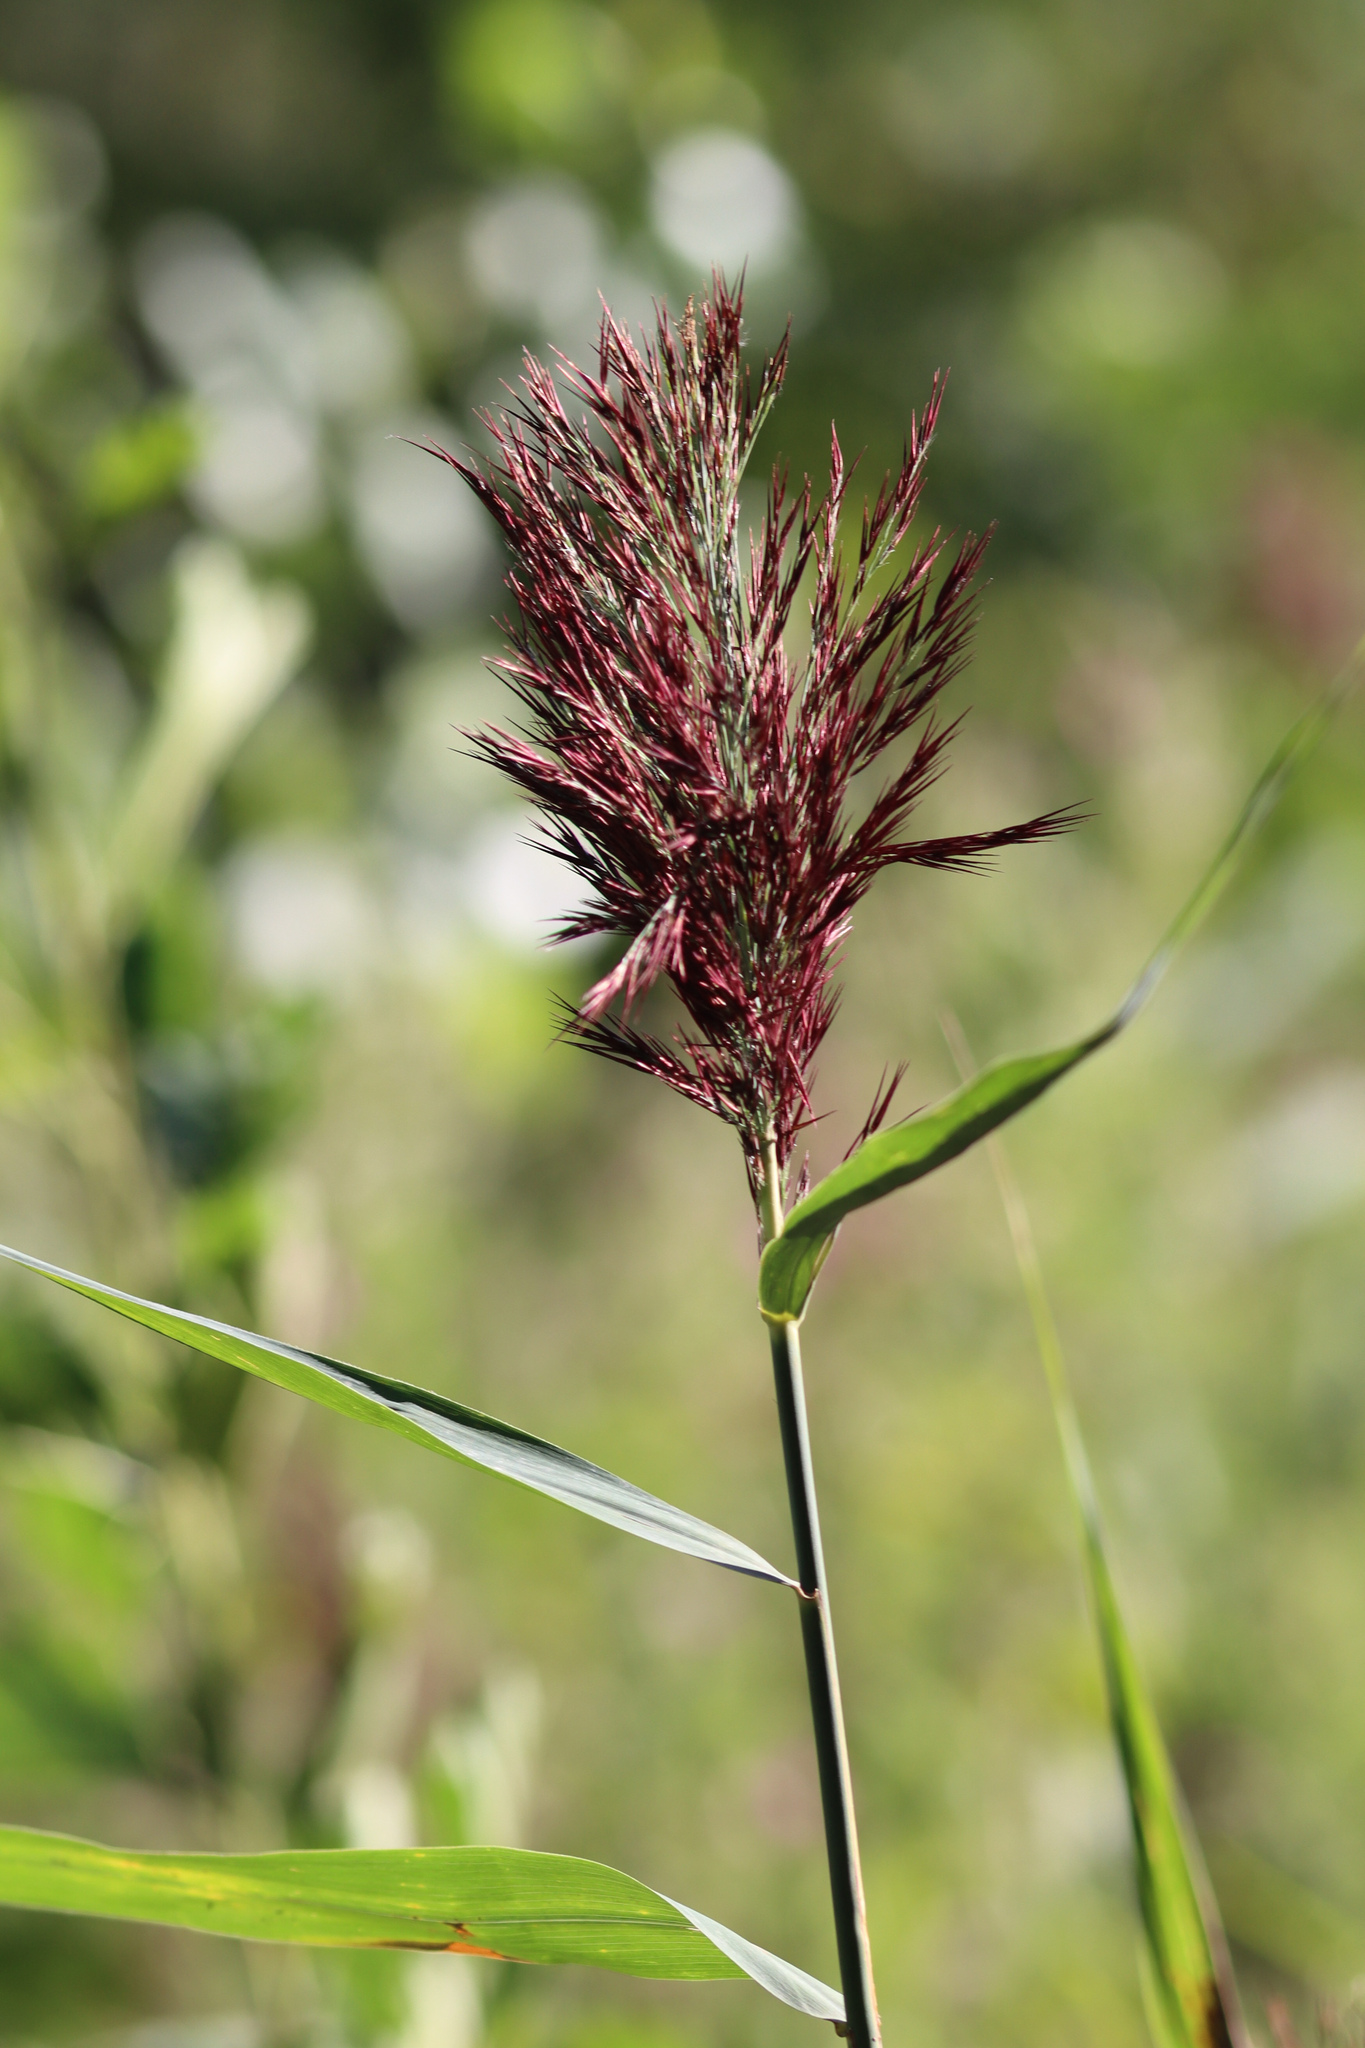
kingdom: Plantae
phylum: Tracheophyta
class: Liliopsida
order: Poales
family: Poaceae
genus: Phragmites
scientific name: Phragmites australis
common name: Common reed
